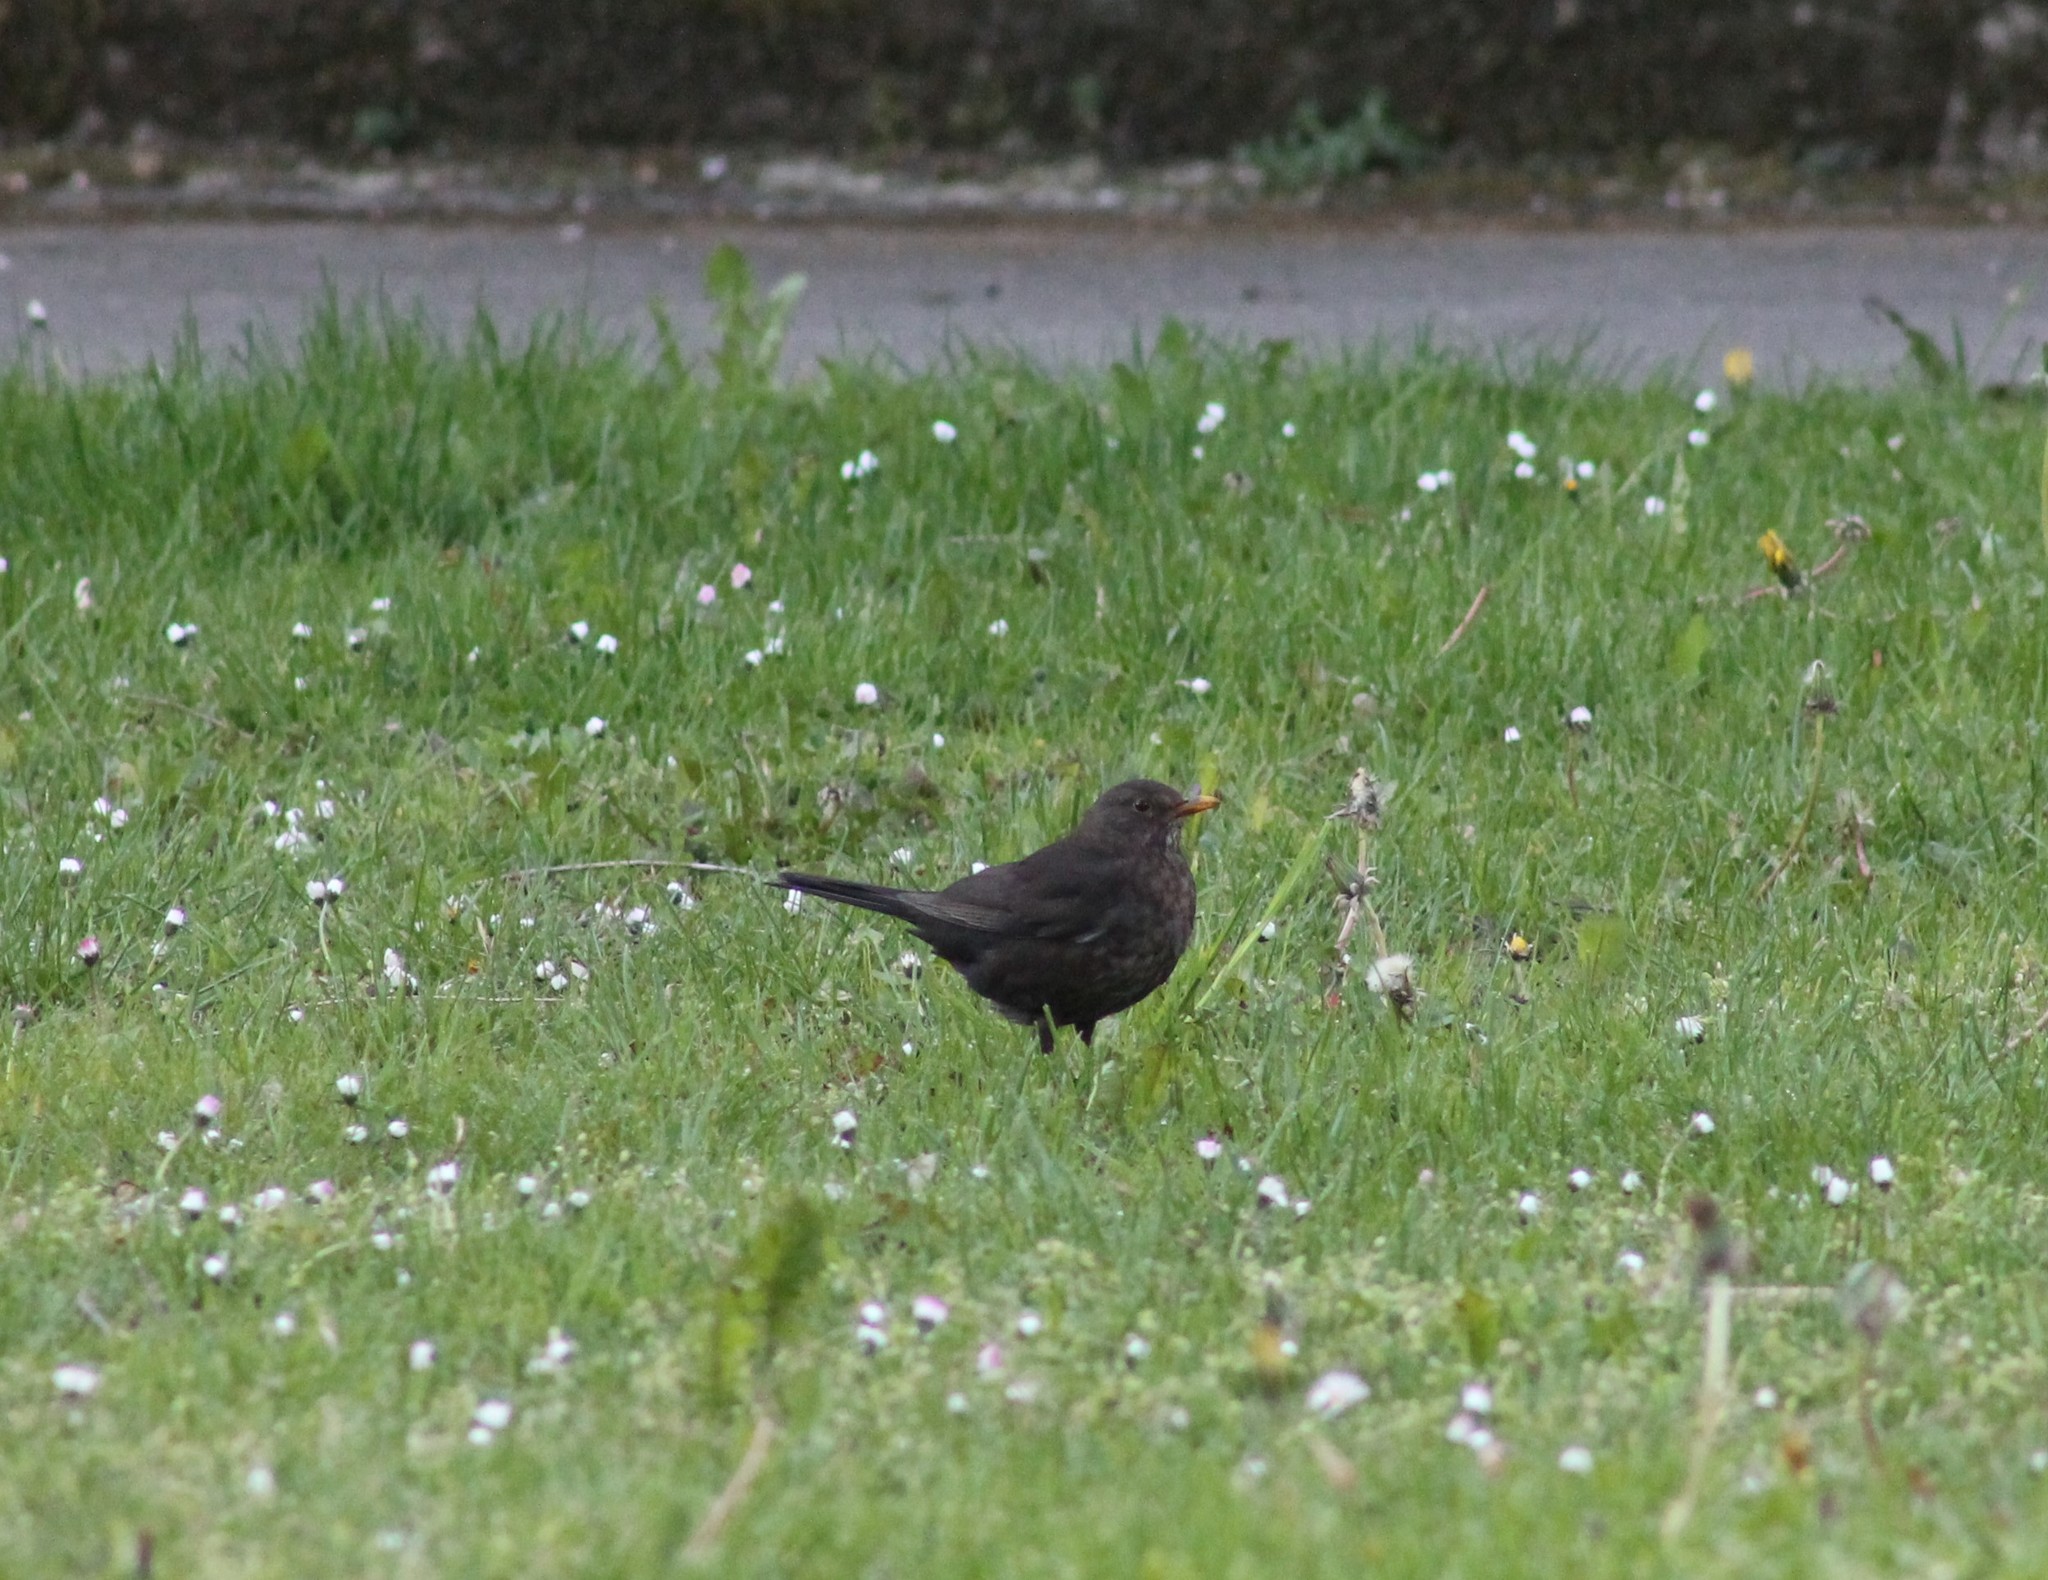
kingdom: Animalia
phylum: Chordata
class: Aves
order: Passeriformes
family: Turdidae
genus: Turdus
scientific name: Turdus merula
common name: Common blackbird
